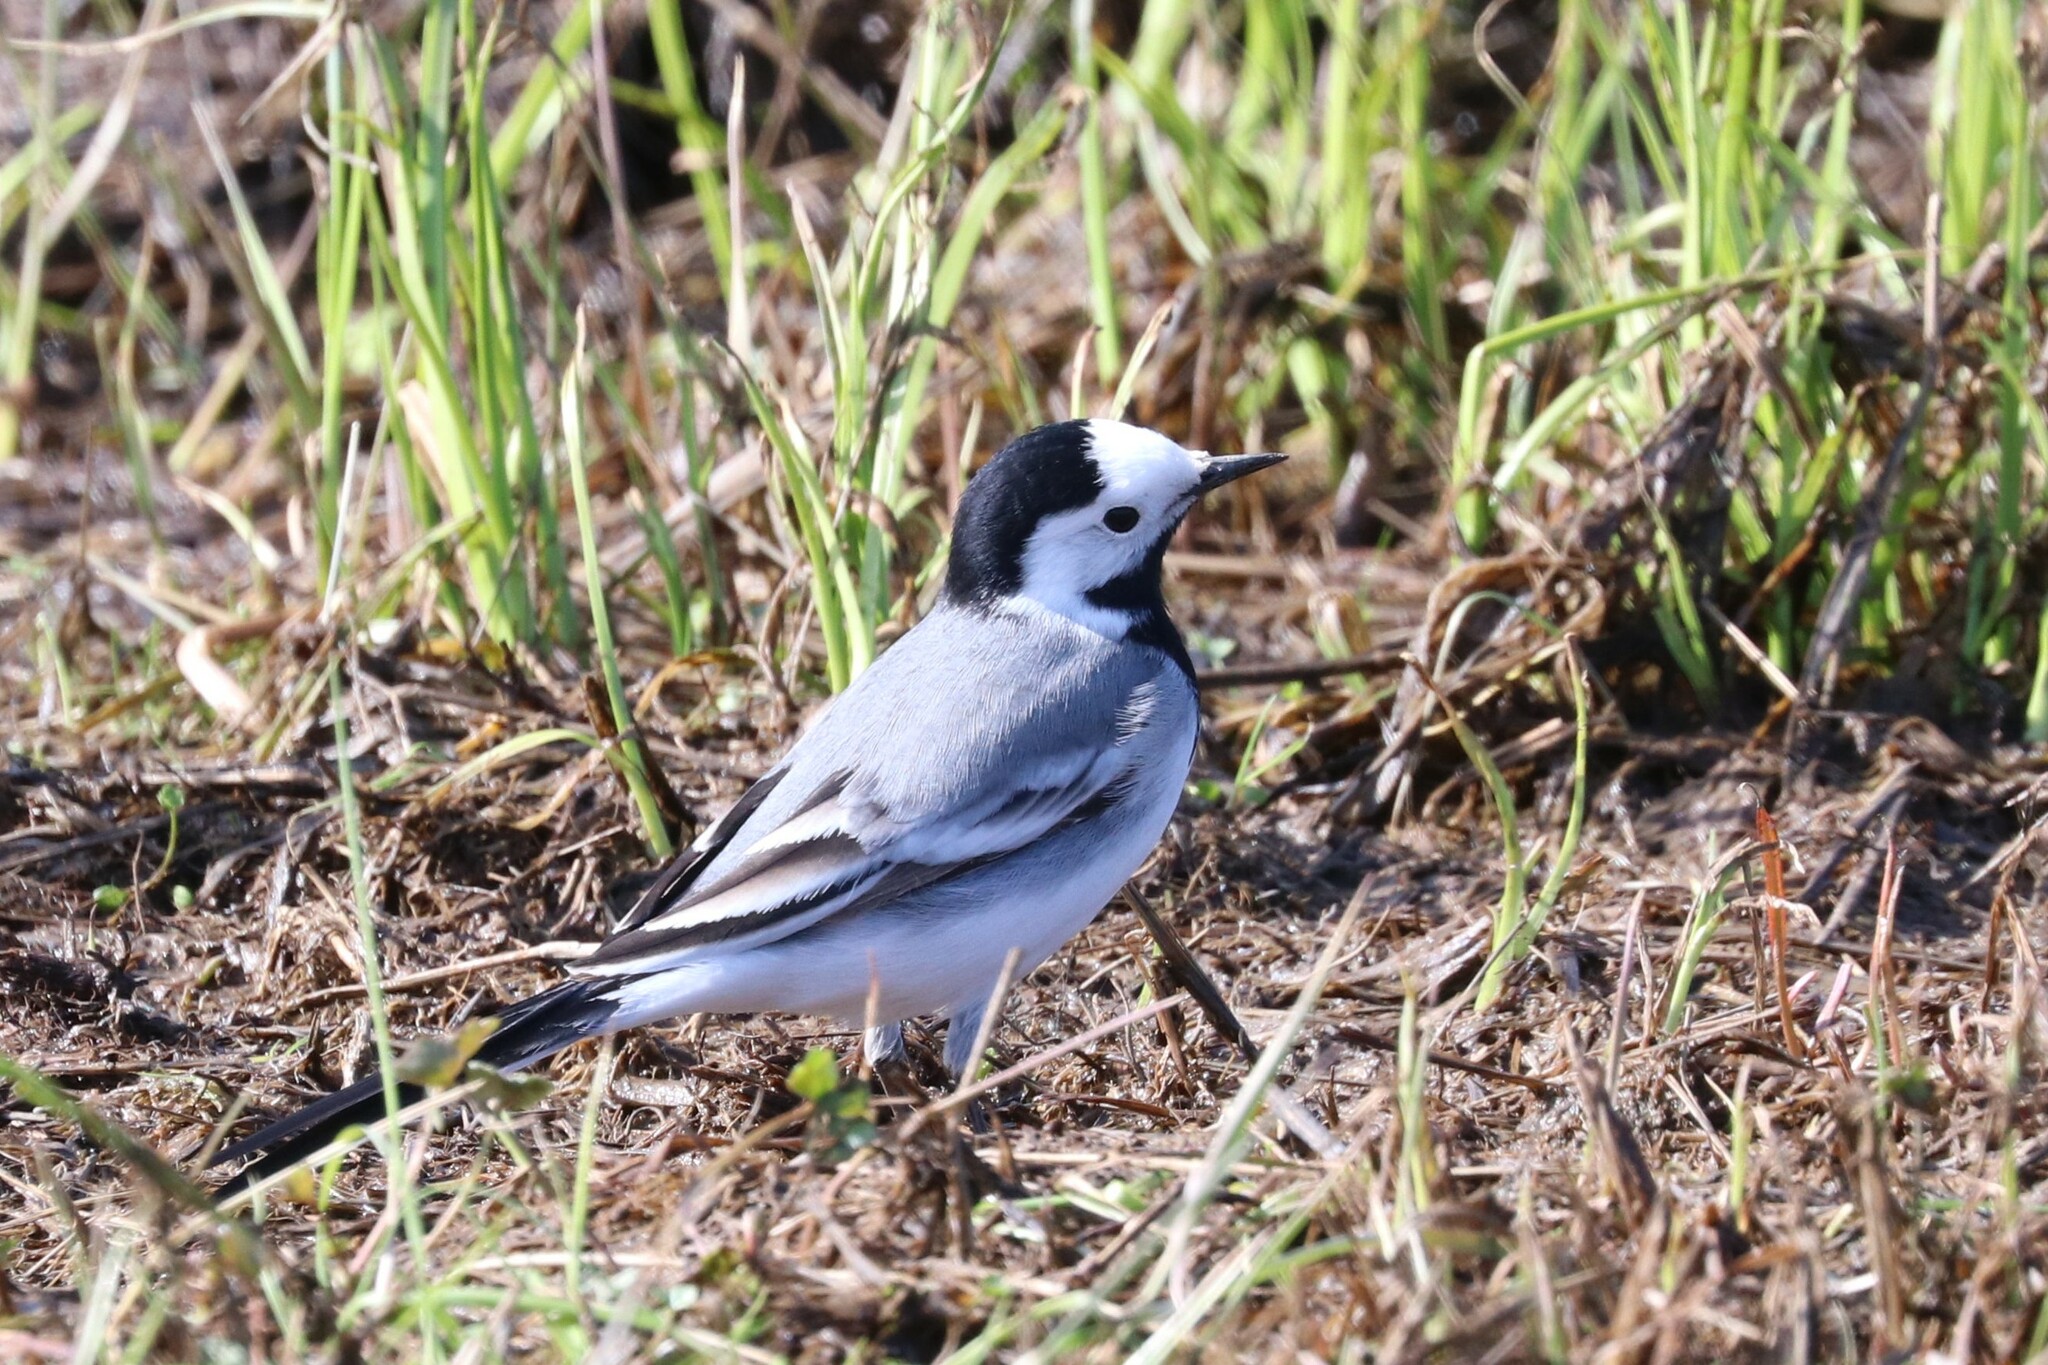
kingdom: Animalia
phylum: Chordata
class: Aves
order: Passeriformes
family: Motacillidae
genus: Motacilla
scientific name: Motacilla alba
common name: White wagtail
